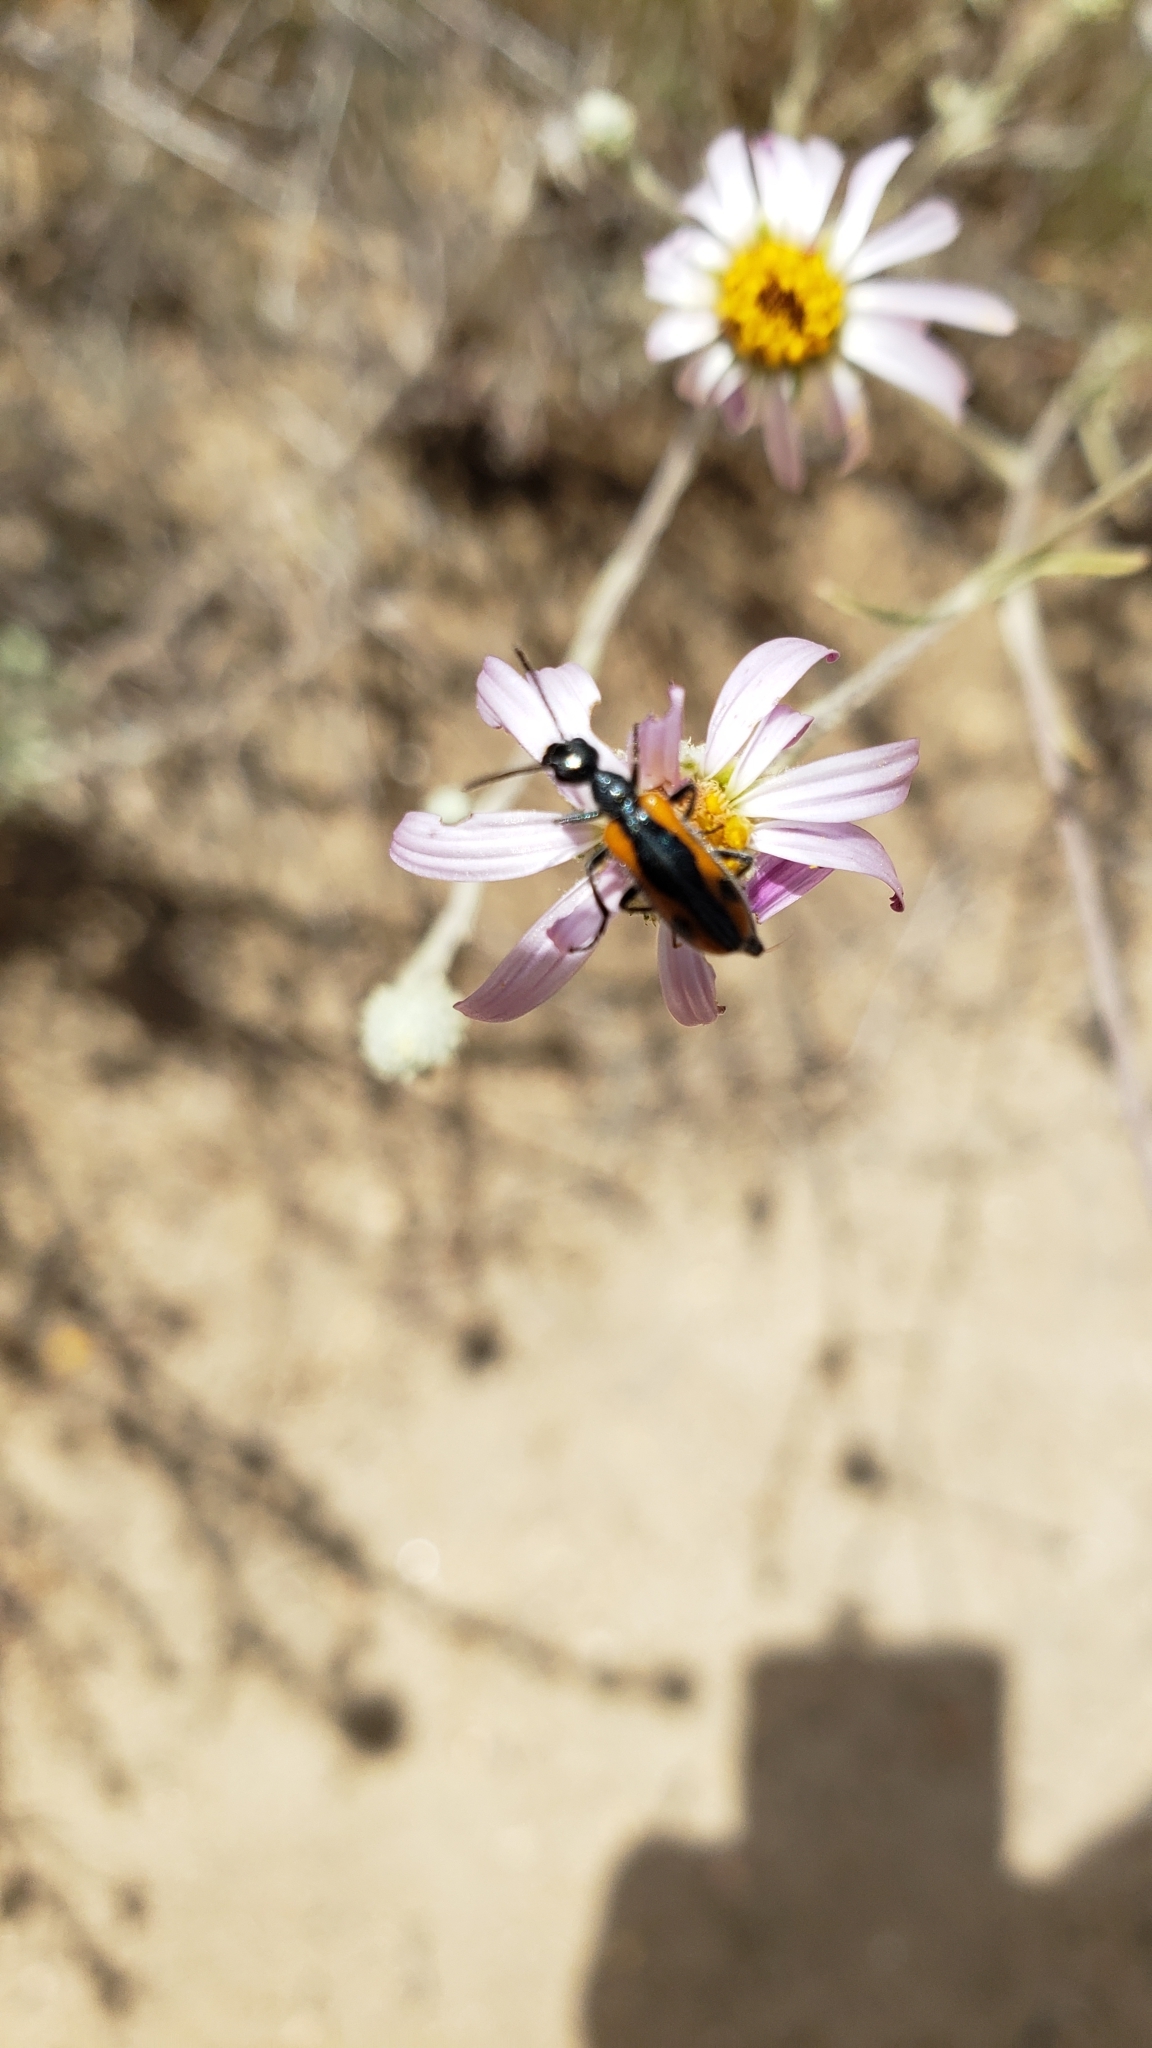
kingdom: Animalia
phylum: Arthropoda
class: Insecta
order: Coleoptera
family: Meloidae
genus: Eupompha
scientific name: Eupompha elegans
